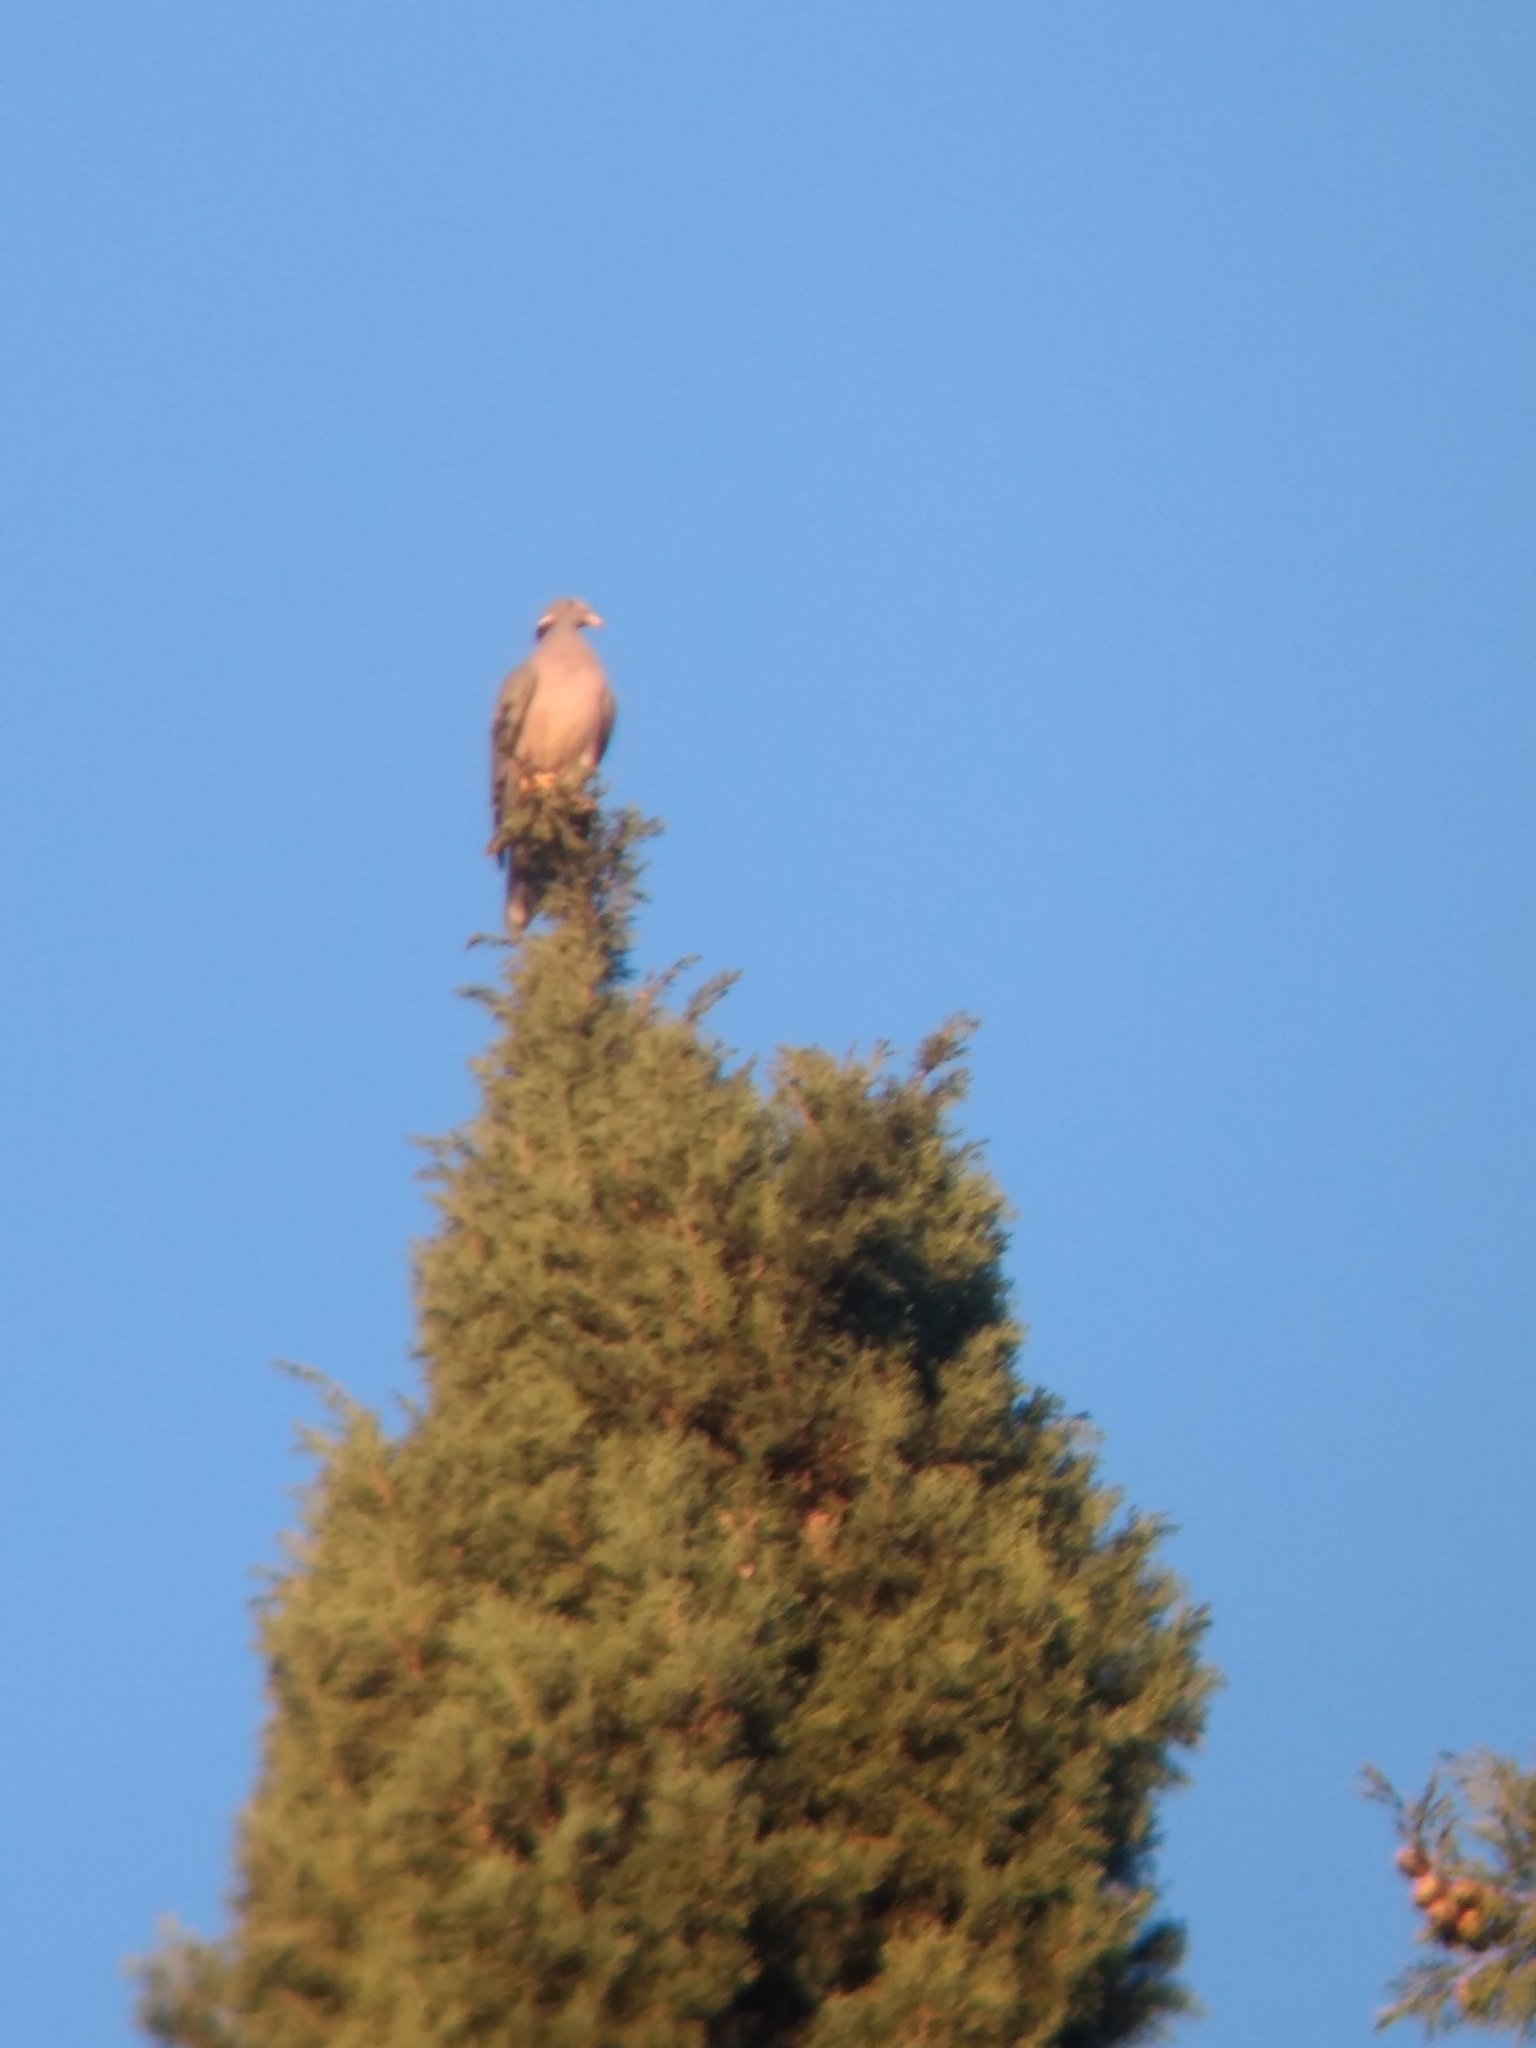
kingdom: Animalia
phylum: Chordata
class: Aves
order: Columbiformes
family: Columbidae
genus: Patagioenas
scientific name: Patagioenas fasciata
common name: Band-tailed pigeon
